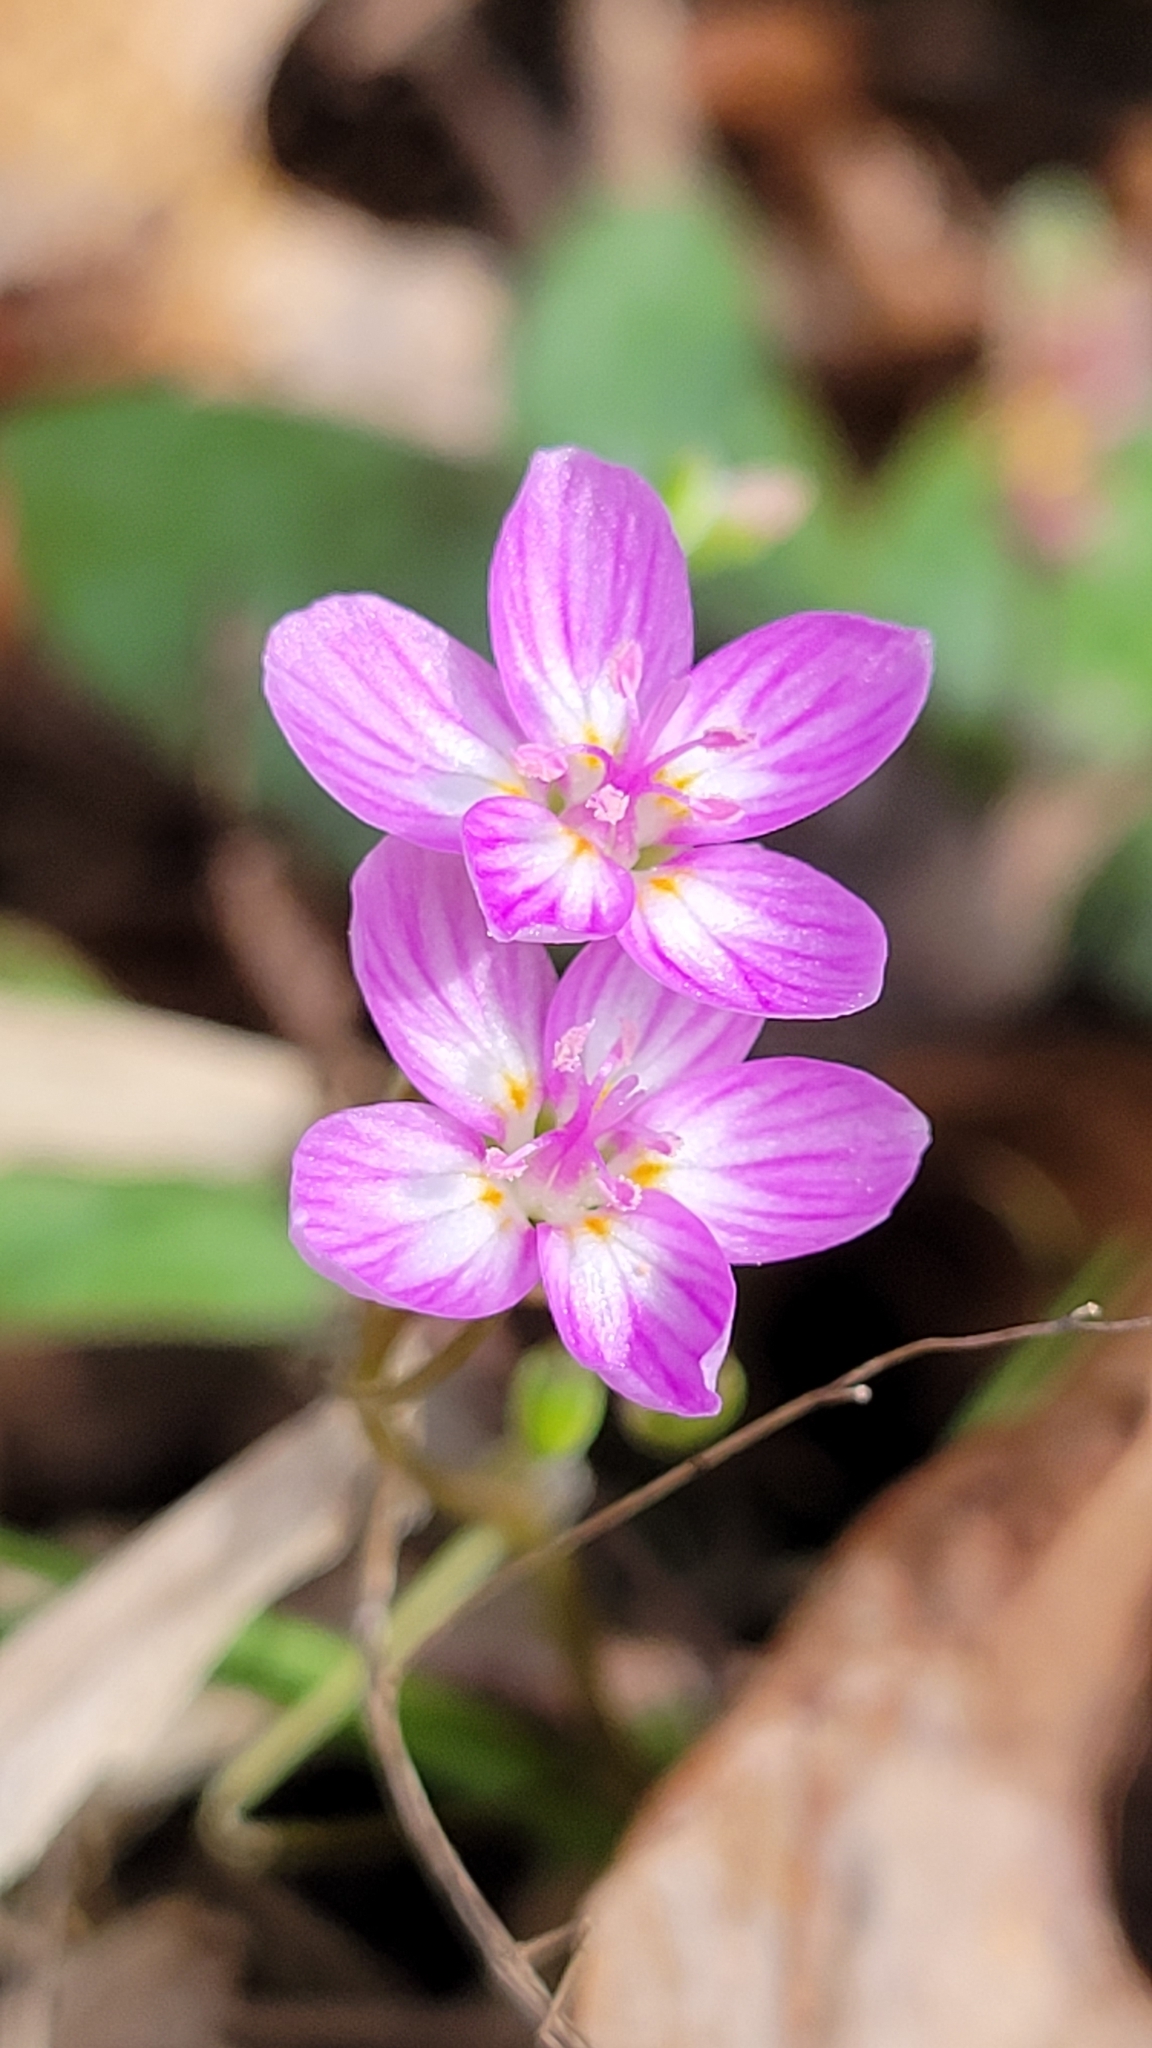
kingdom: Plantae
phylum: Tracheophyta
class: Magnoliopsida
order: Caryophyllales
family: Montiaceae
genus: Claytonia
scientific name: Claytonia virginica
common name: Virginia springbeauty
